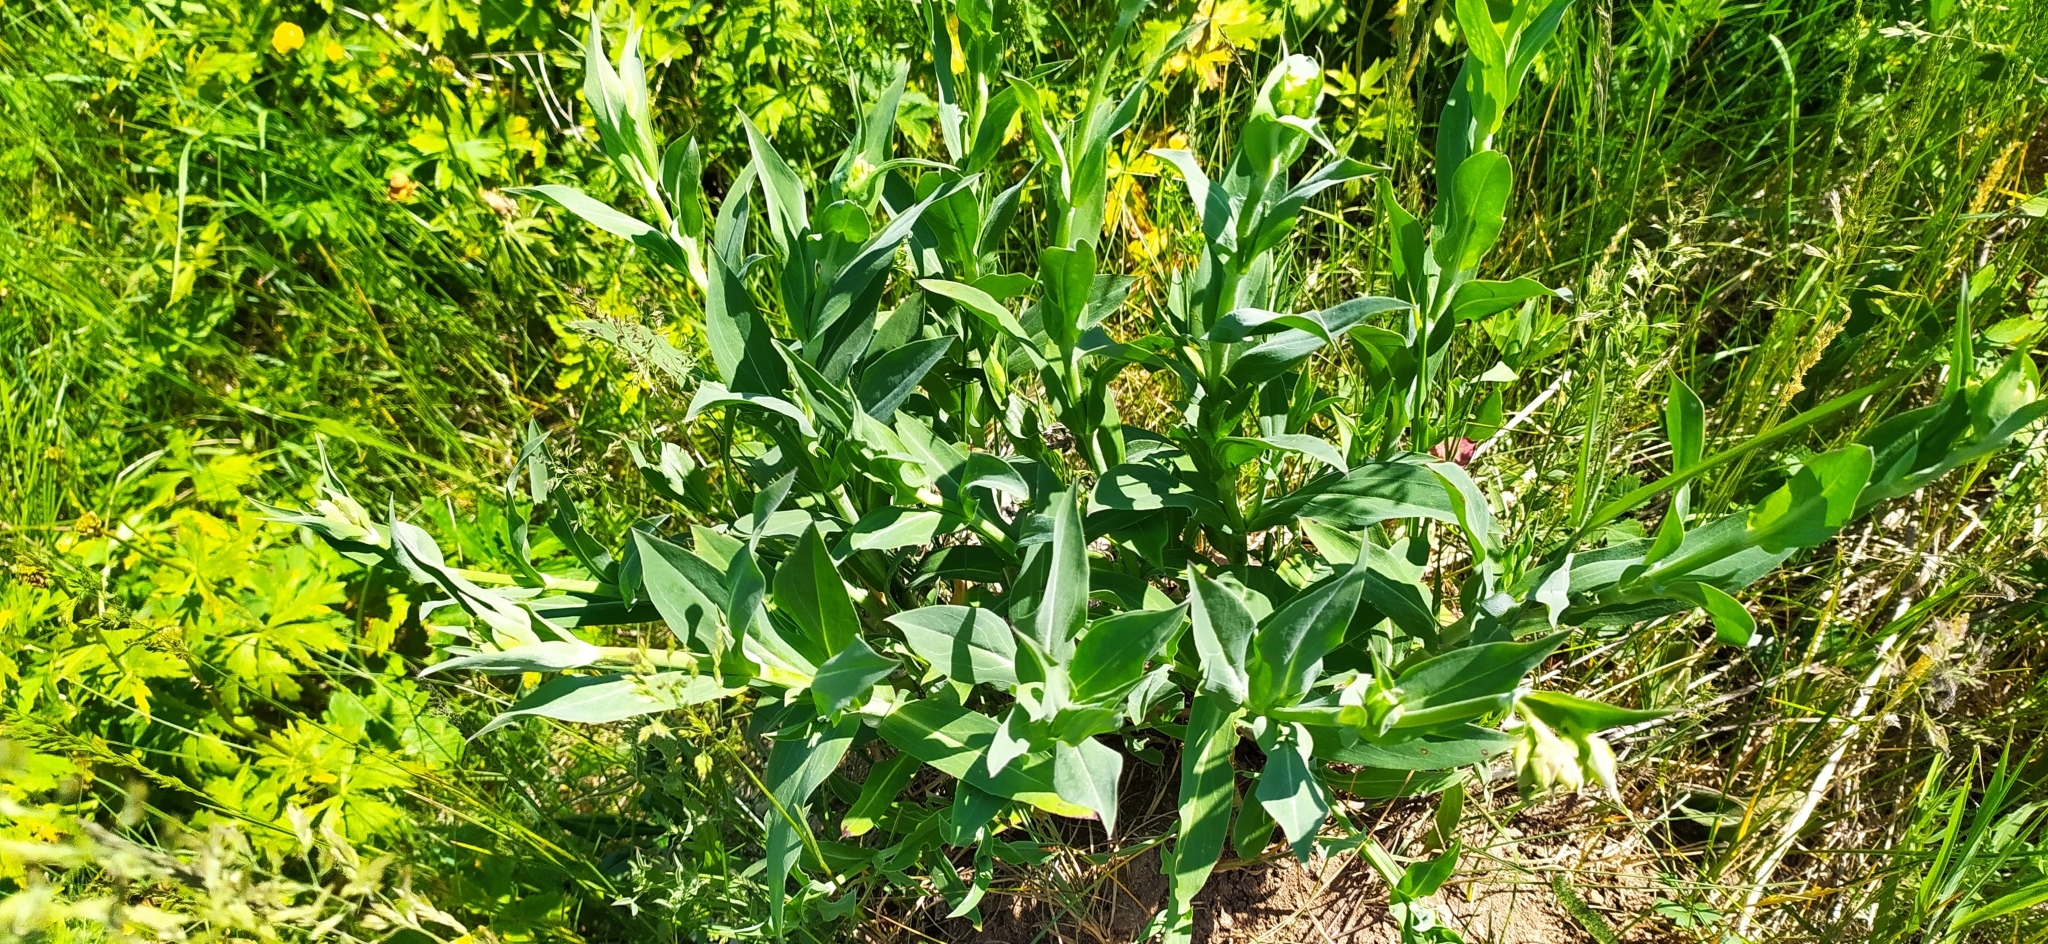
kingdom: Plantae
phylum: Tracheophyta
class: Magnoliopsida
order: Caryophyllales
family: Caryophyllaceae
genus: Silene
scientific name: Silene vulgaris
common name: Bladder campion
